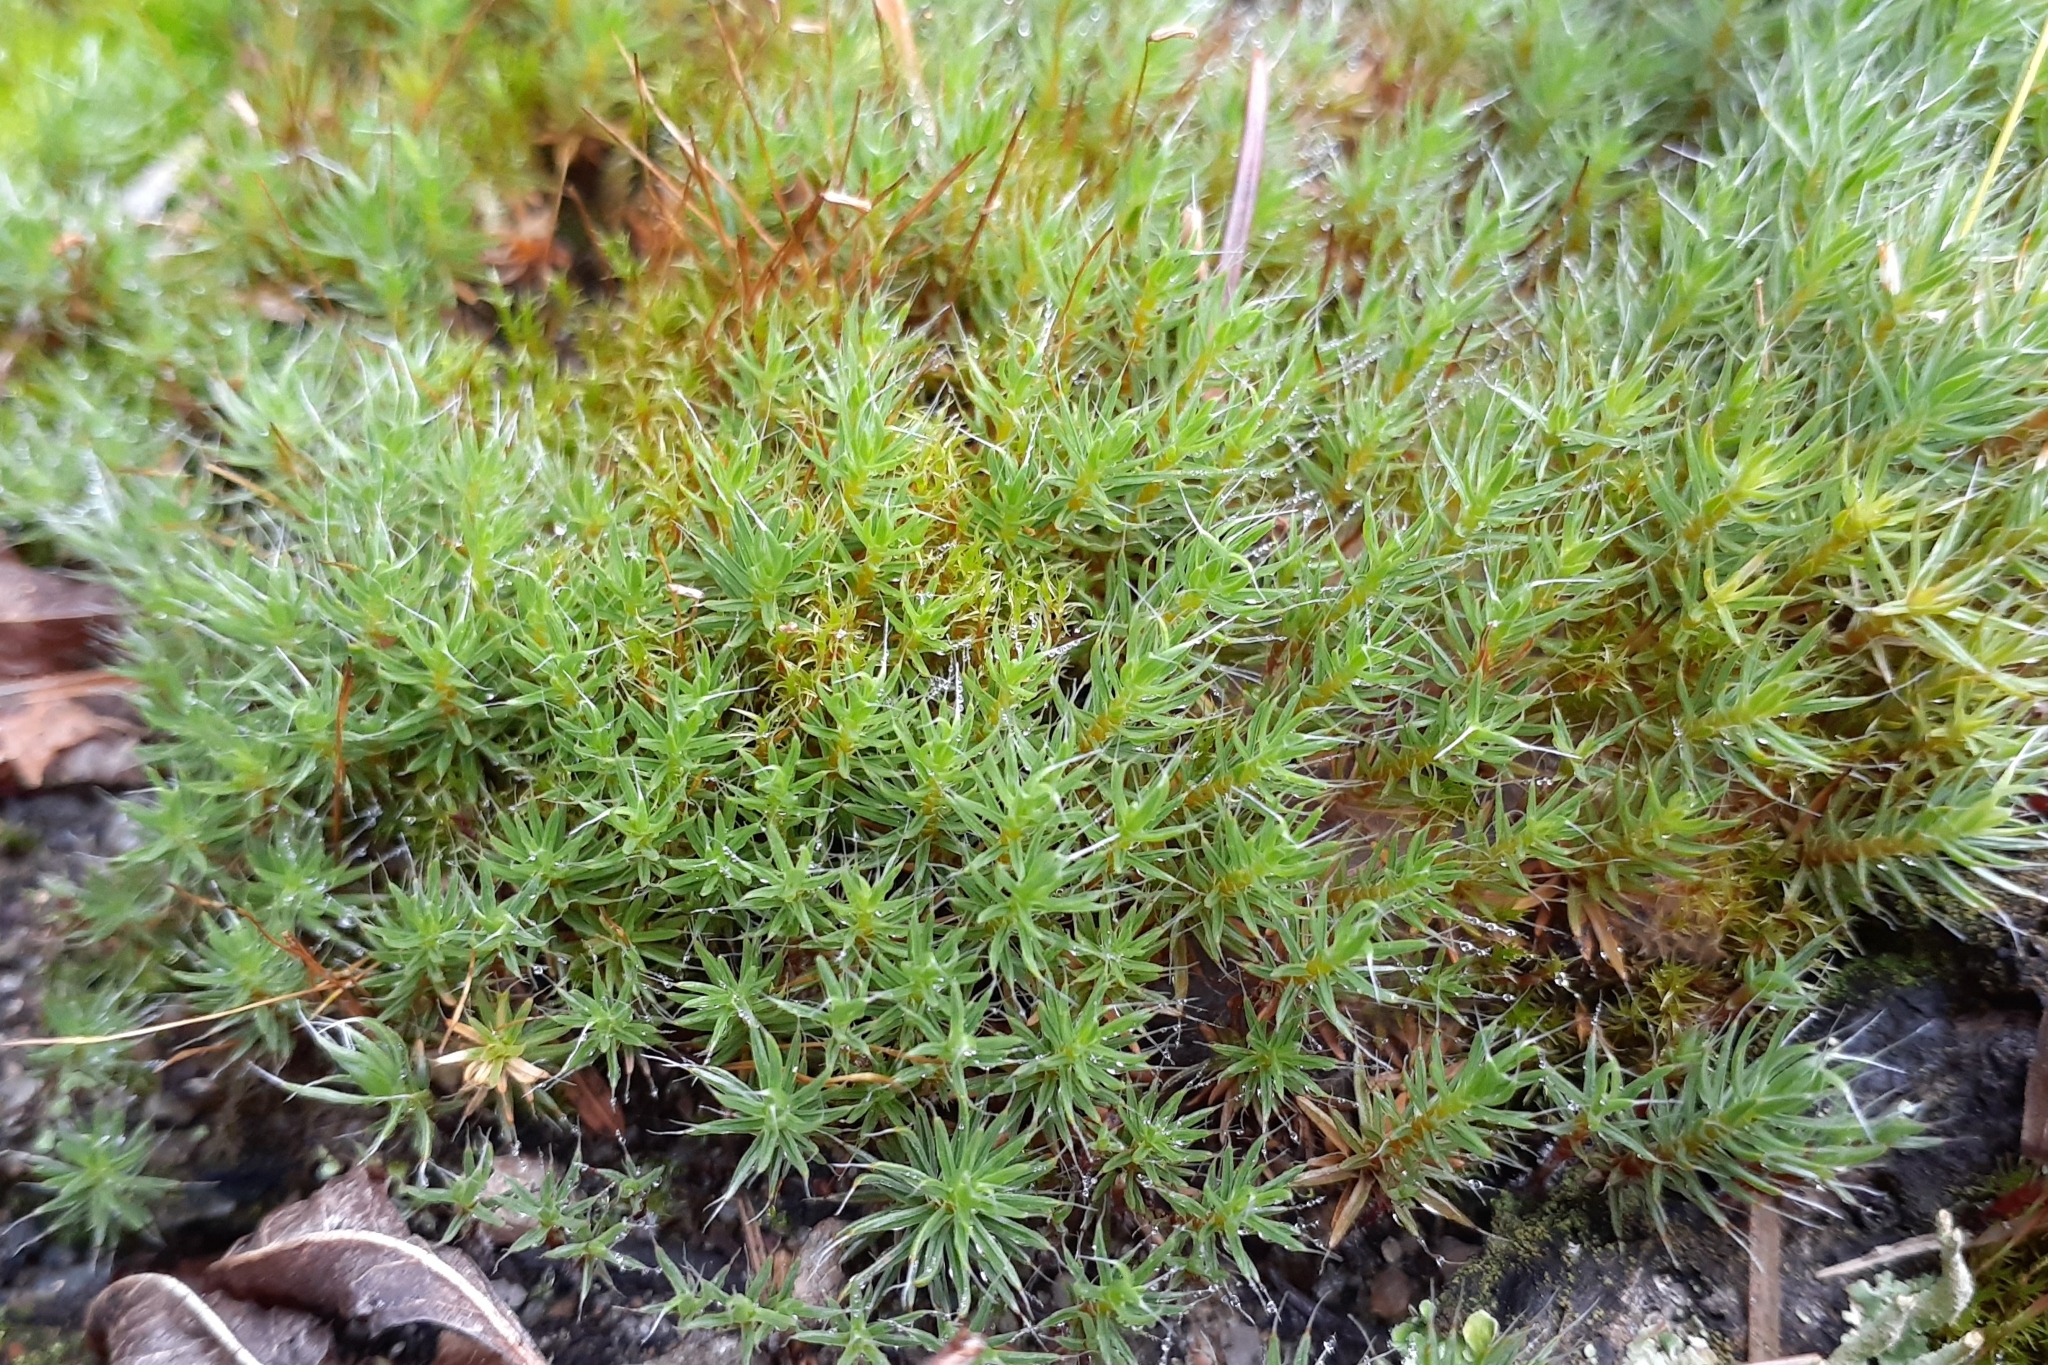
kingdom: Plantae
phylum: Bryophyta
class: Polytrichopsida
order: Polytrichales
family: Polytrichaceae
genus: Polytrichum
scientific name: Polytrichum piliferum
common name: Bristly haircap
